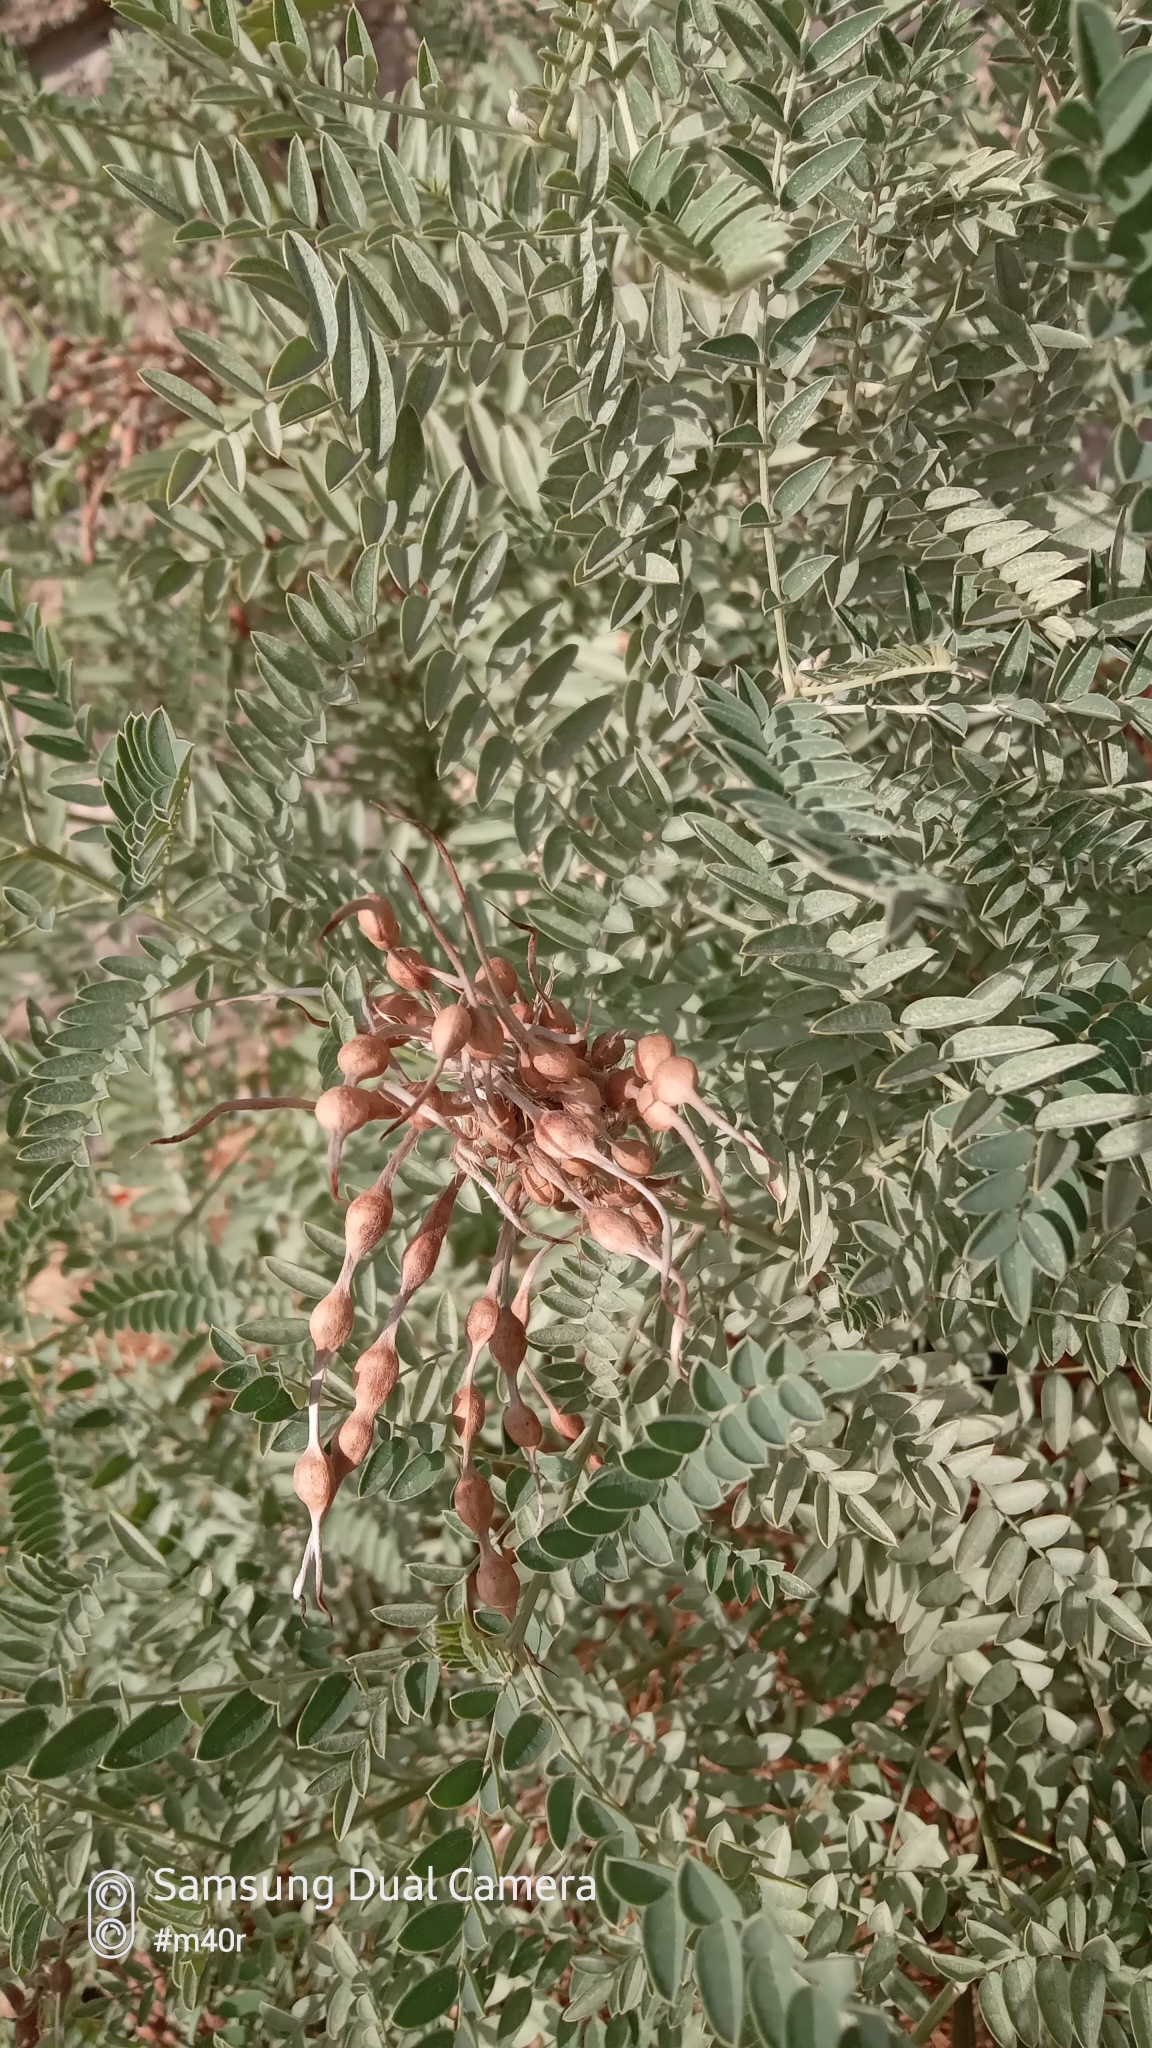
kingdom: Plantae
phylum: Tracheophyta
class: Magnoliopsida
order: Fabales
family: Fabaceae
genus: Sophora
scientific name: Sophora alopecuroides
